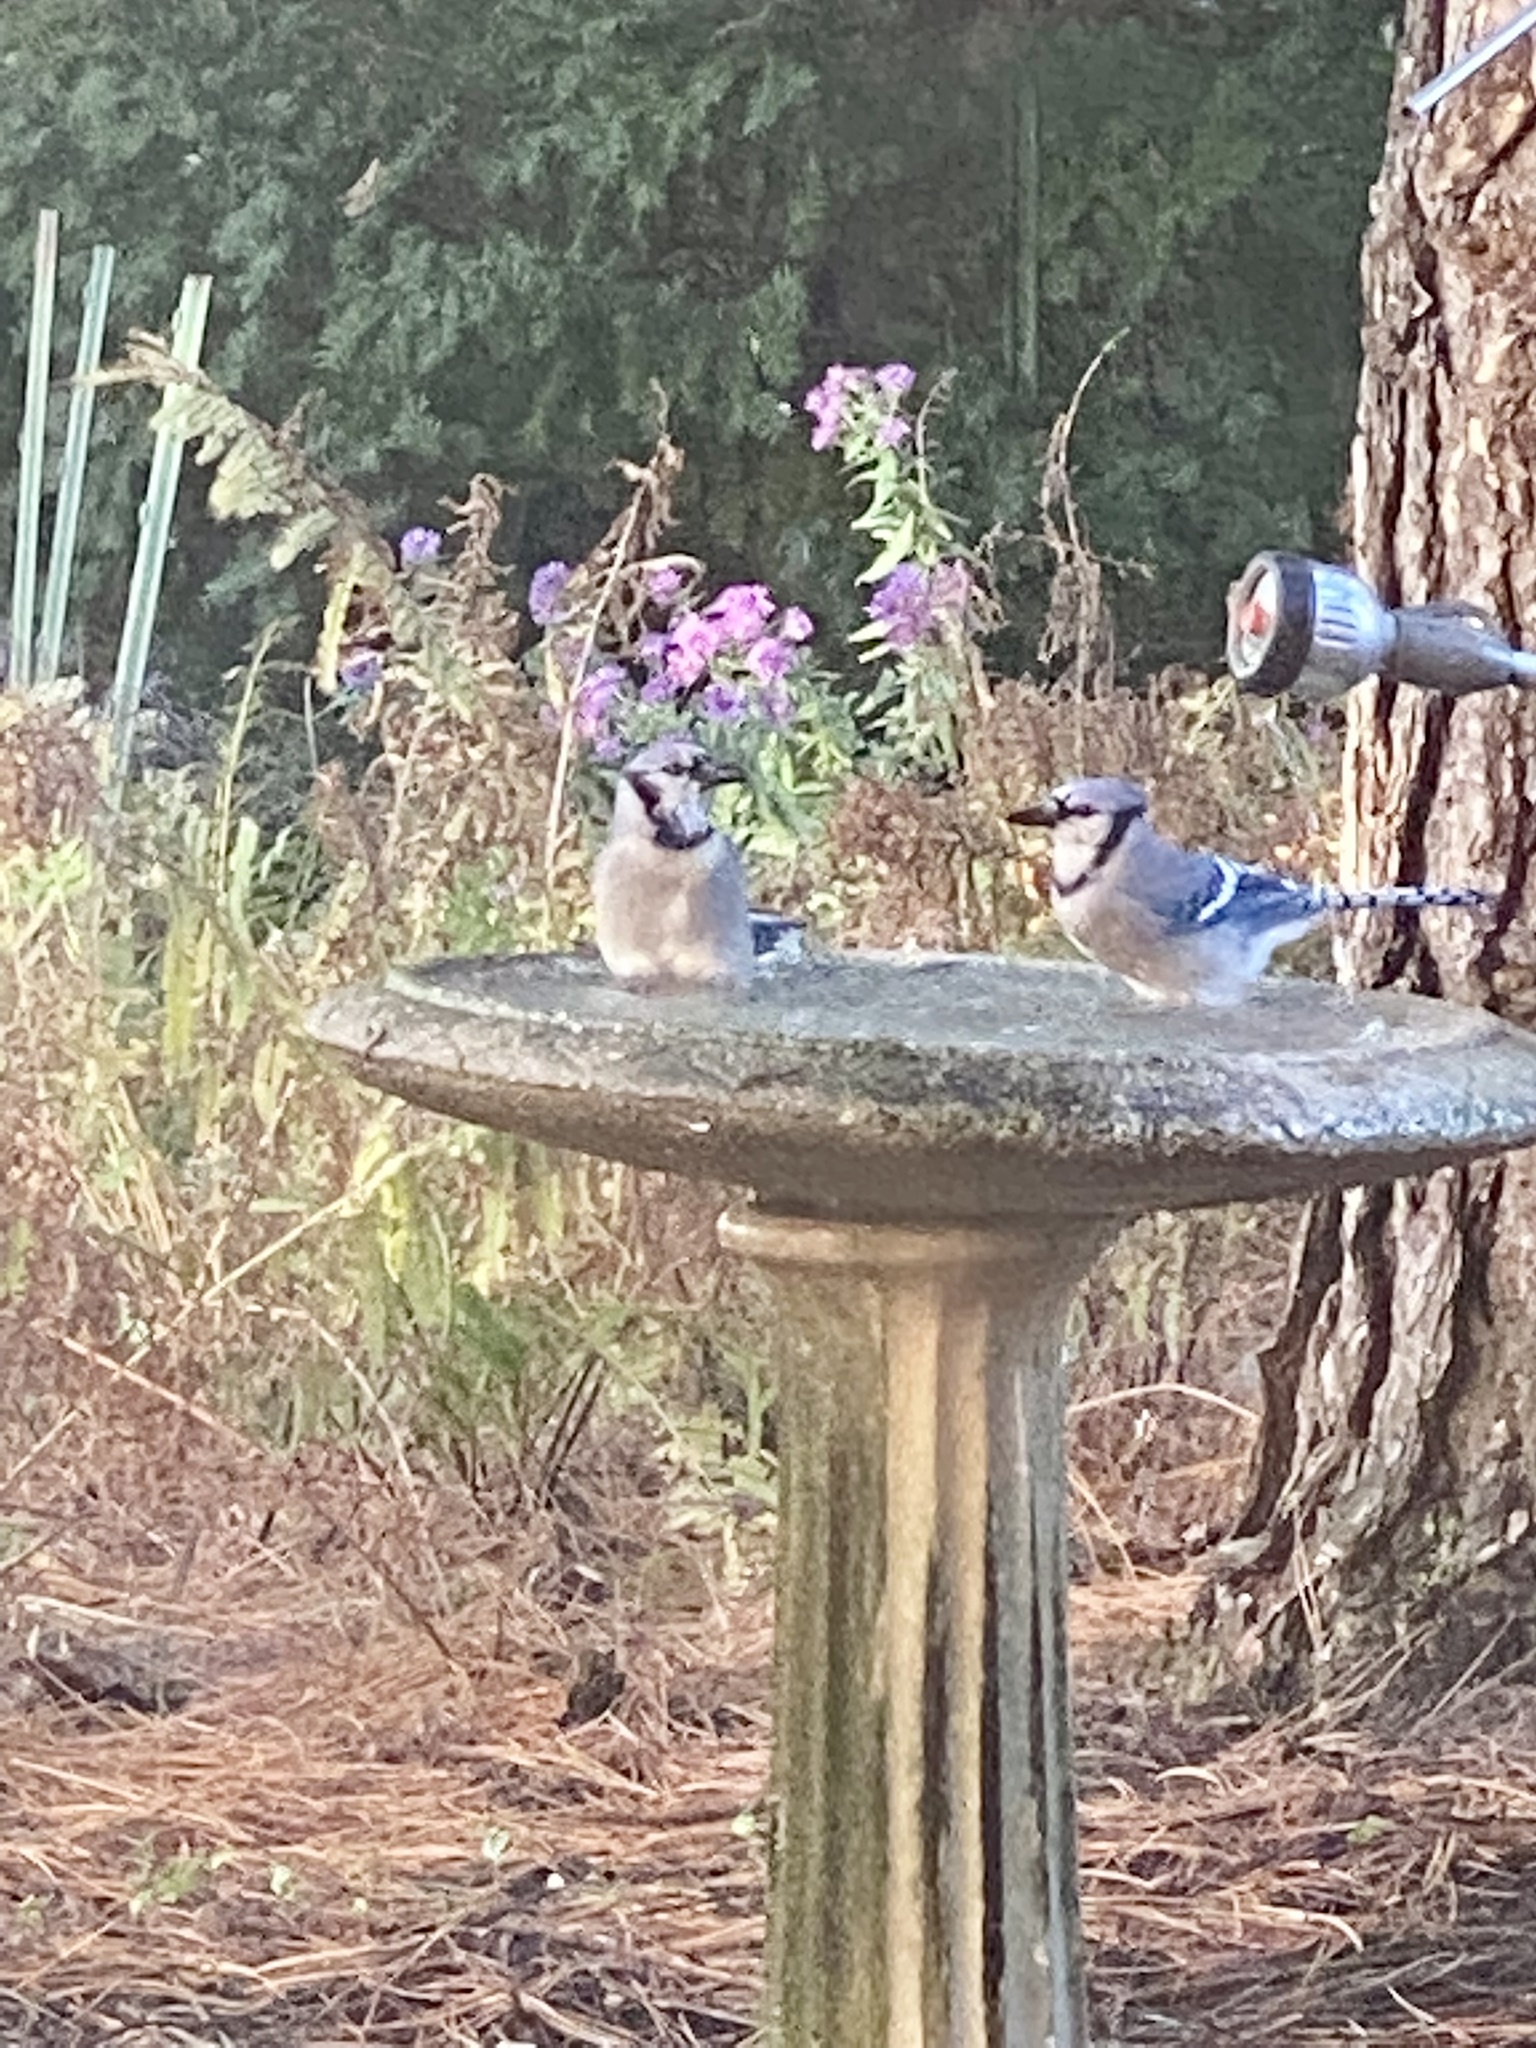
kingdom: Animalia
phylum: Chordata
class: Aves
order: Passeriformes
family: Corvidae
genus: Cyanocitta
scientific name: Cyanocitta cristata
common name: Blue jay
